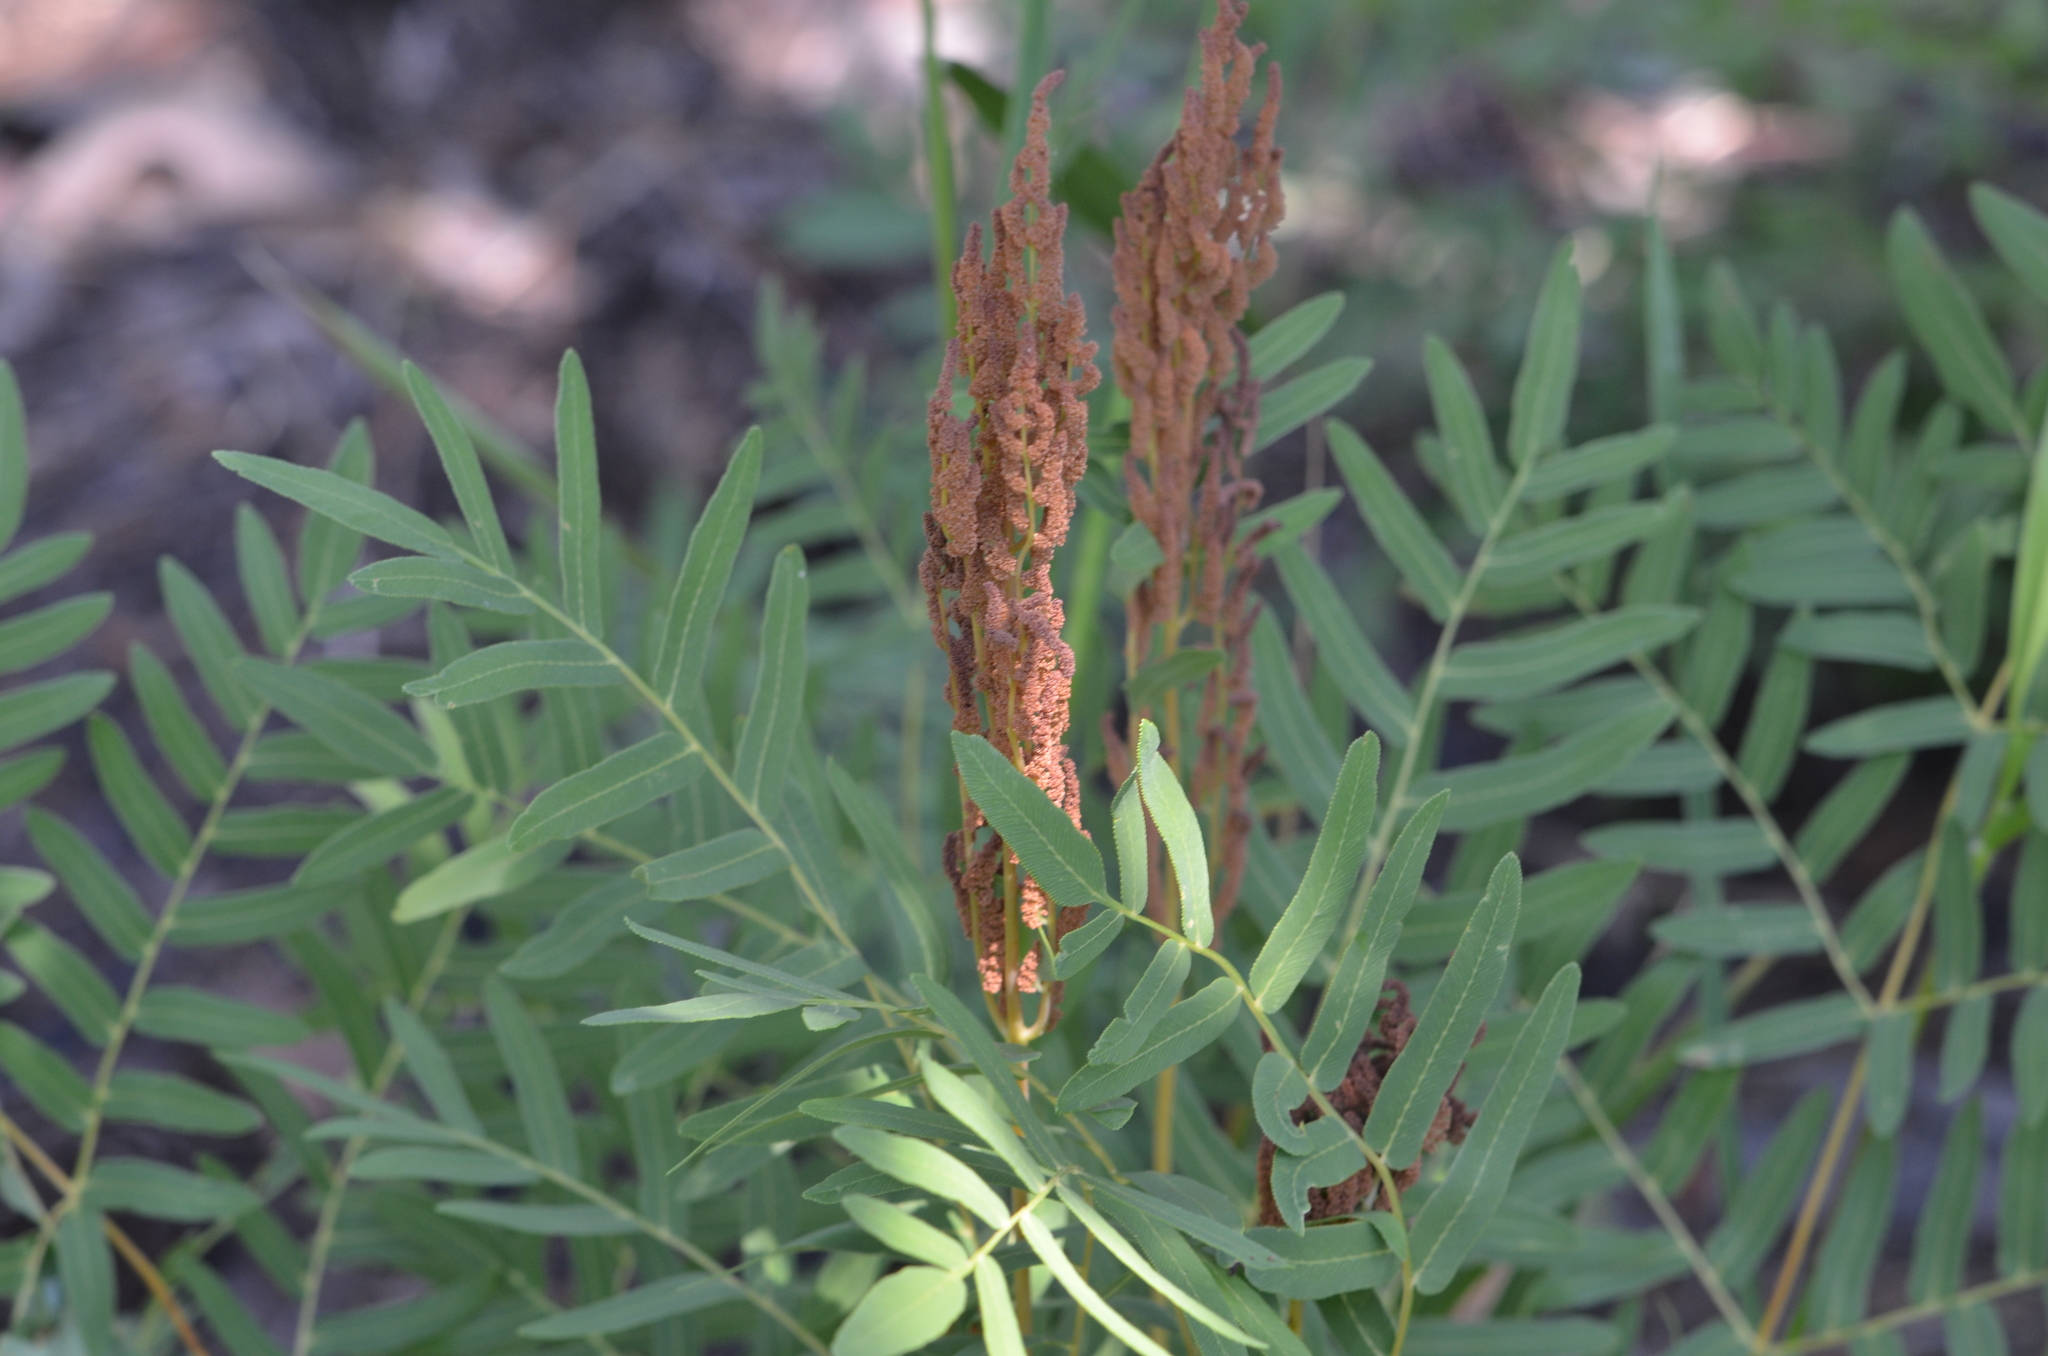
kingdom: Plantae
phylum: Tracheophyta
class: Polypodiopsida
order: Osmundales
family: Osmundaceae
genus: Osmunda
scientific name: Osmunda spectabilis
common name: American royal fern
